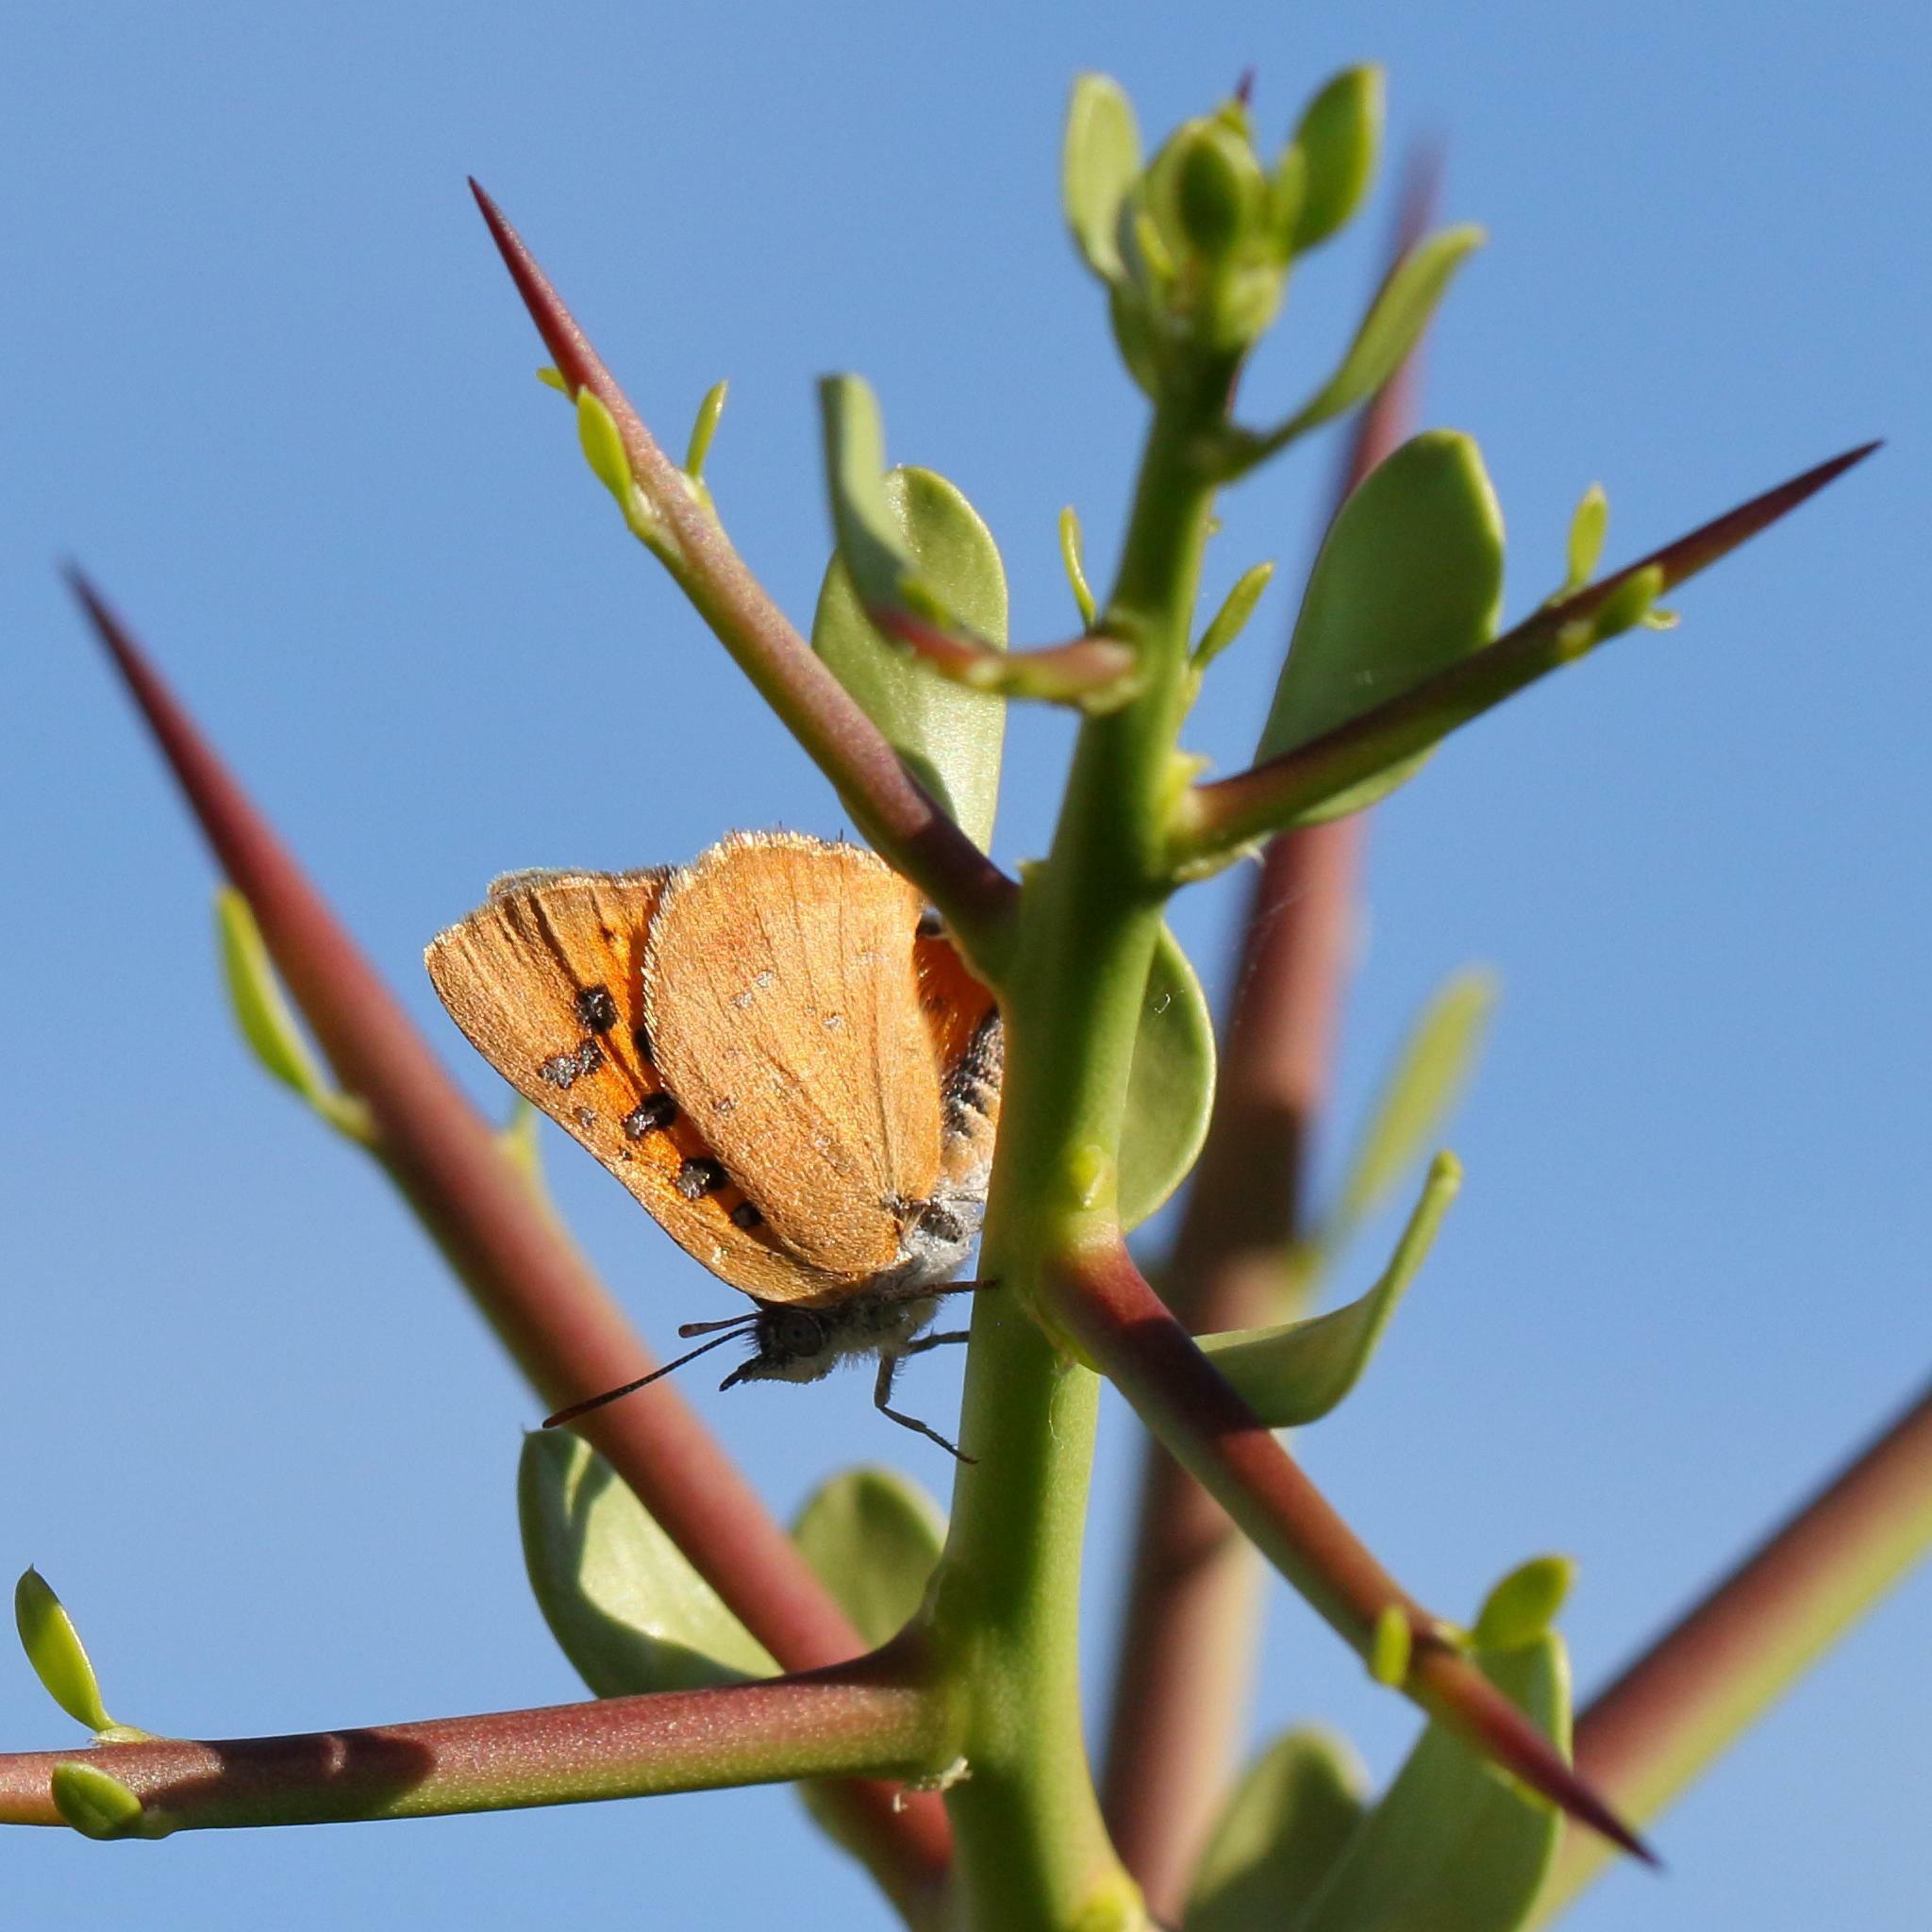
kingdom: Animalia
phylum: Arthropoda
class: Insecta
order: Lepidoptera
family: Lycaenidae
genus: Zeritis
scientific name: Zeritis chrysaor
